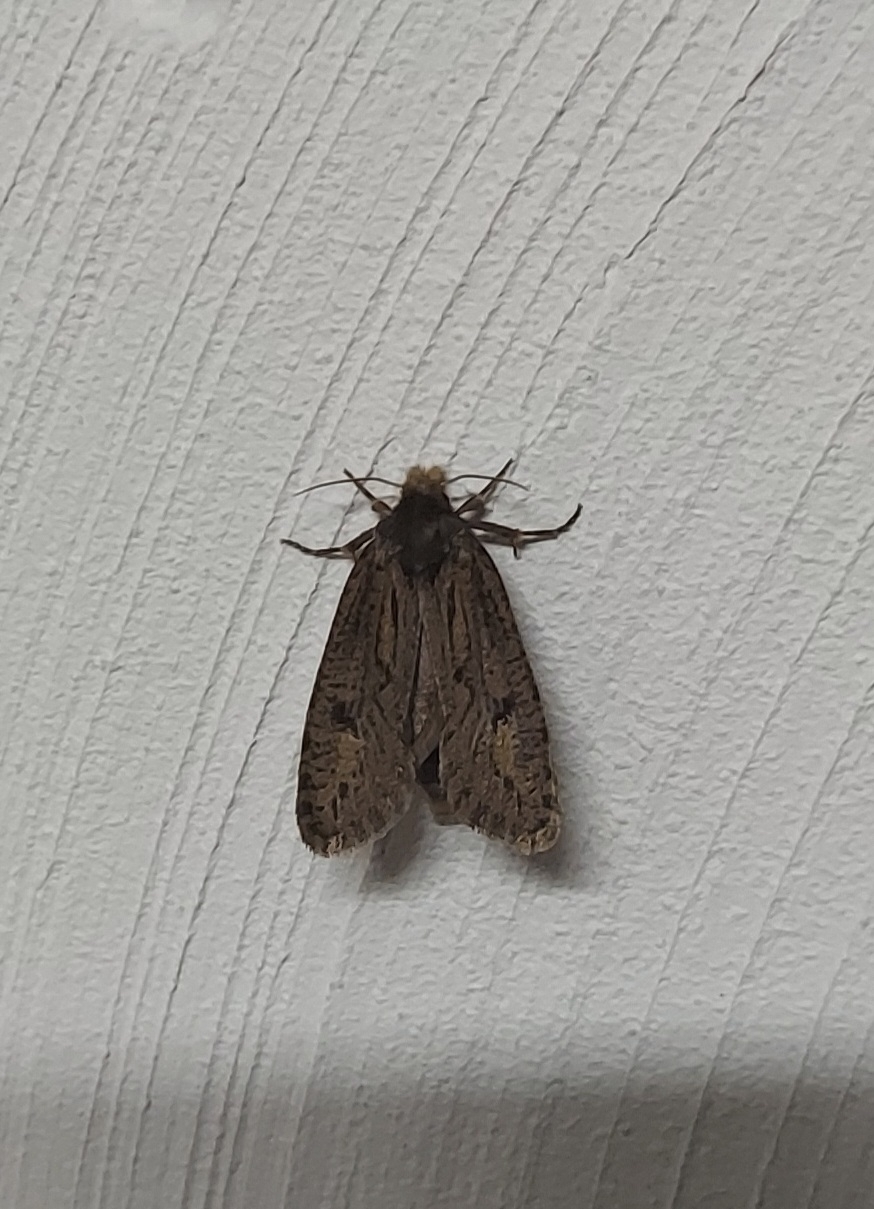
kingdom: Animalia
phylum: Arthropoda
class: Insecta
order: Lepidoptera
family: Tineidae
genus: Acrolophus
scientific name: Acrolophus popeanella
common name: Clemens' grass tubeworm moth
